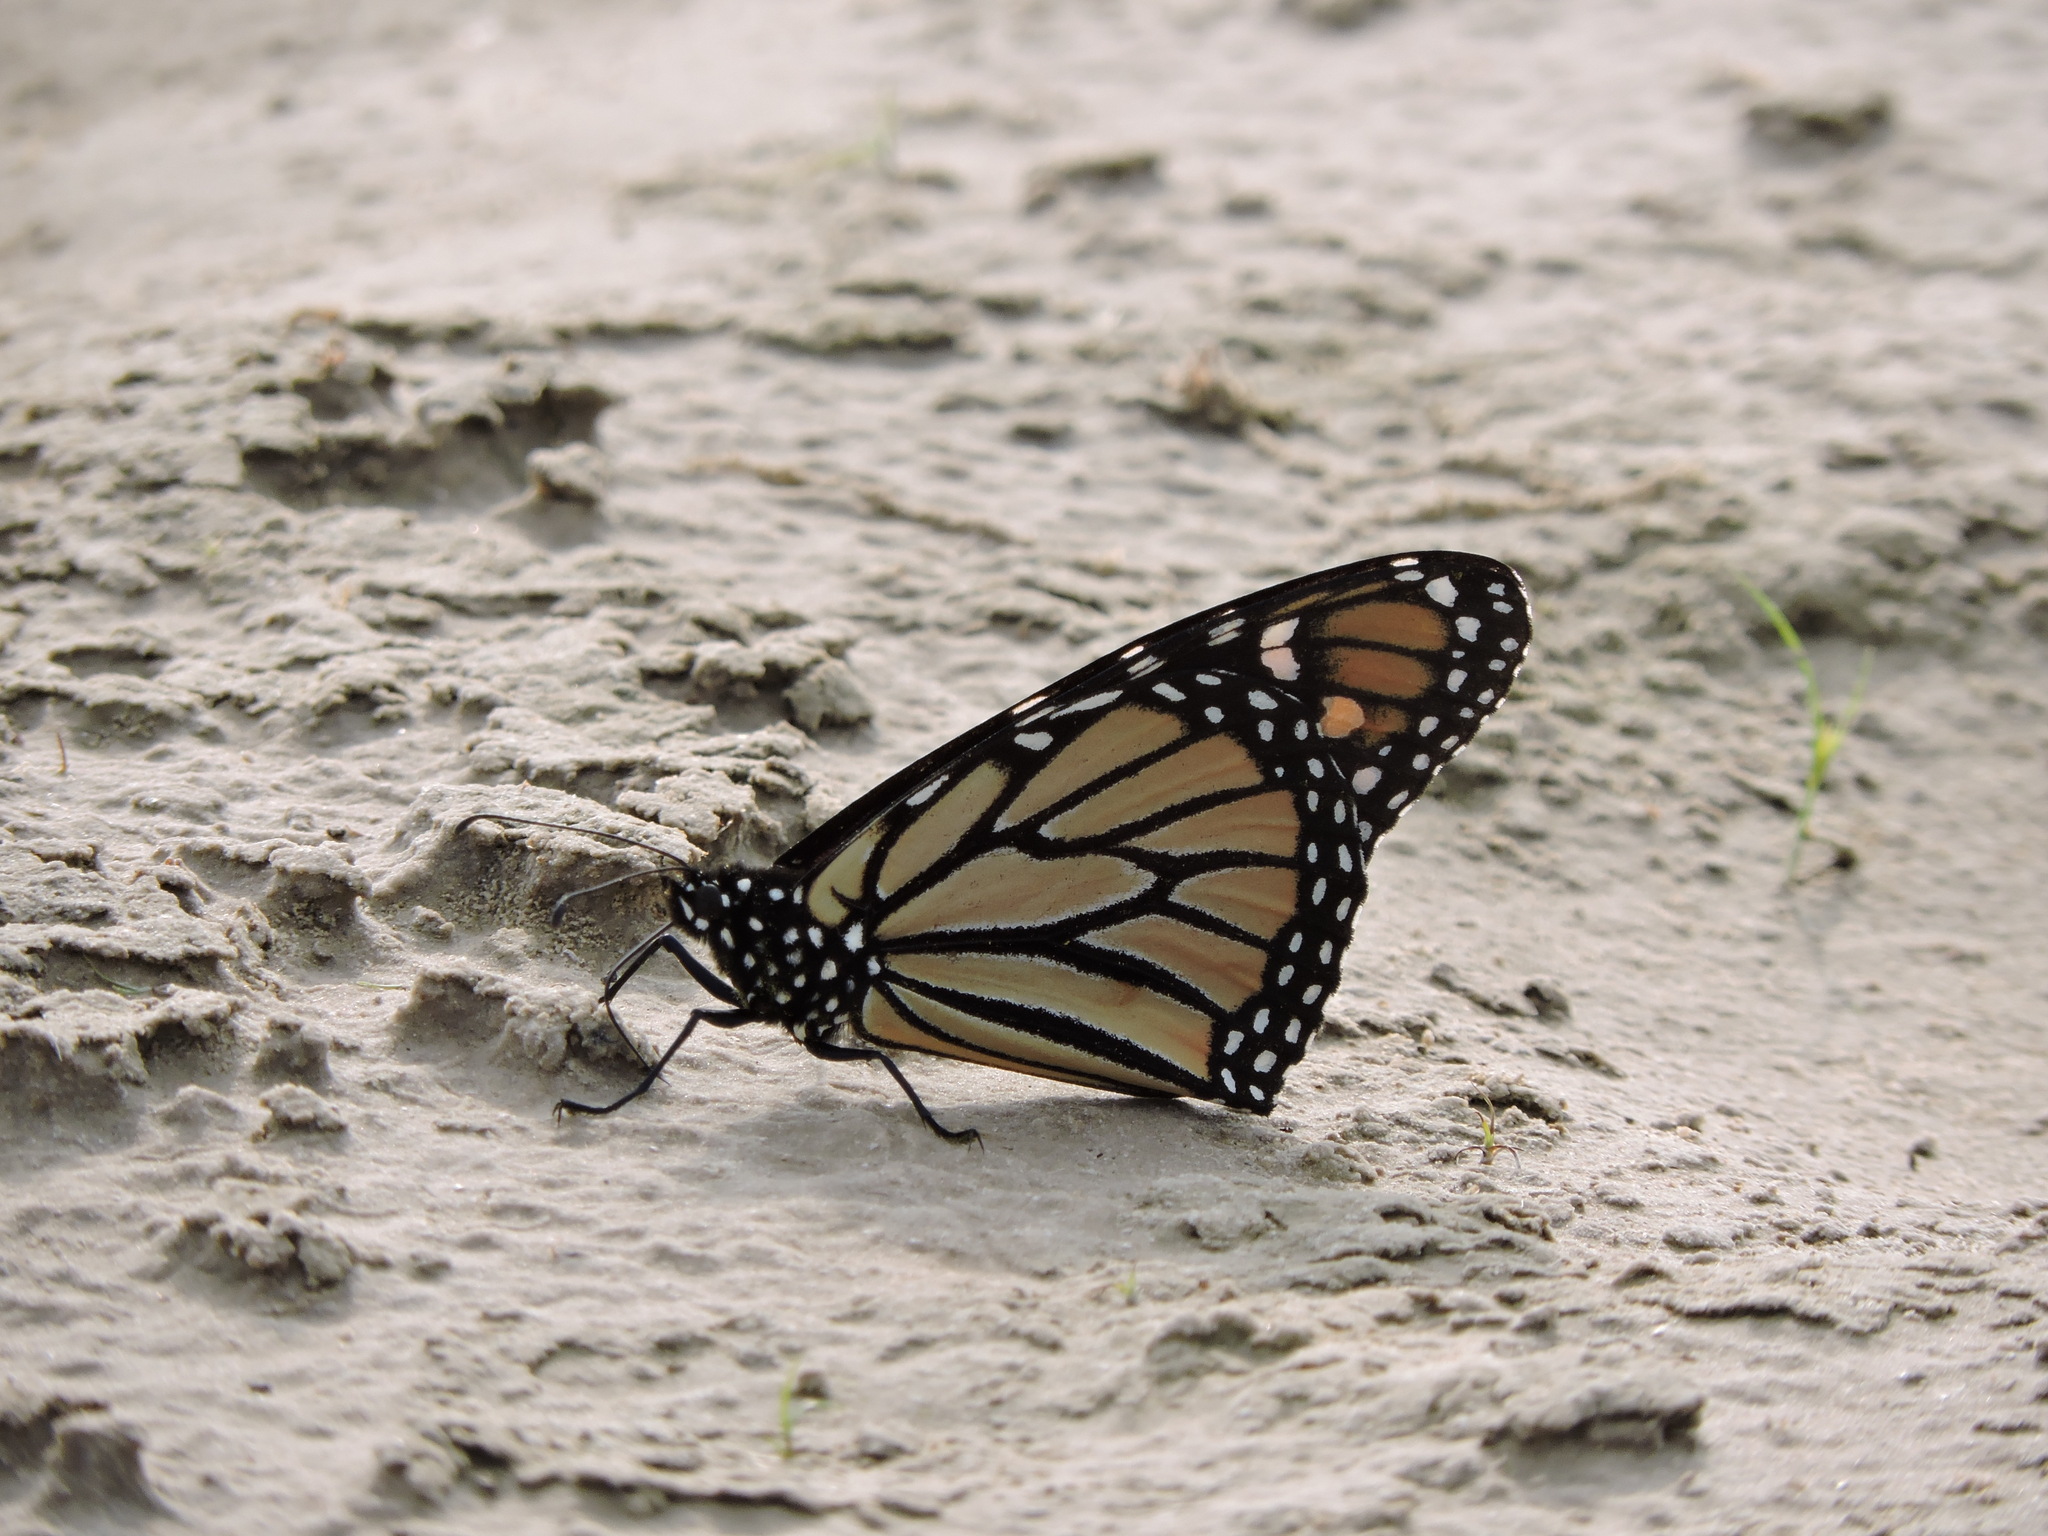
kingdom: Animalia
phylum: Arthropoda
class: Insecta
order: Lepidoptera
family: Nymphalidae
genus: Danaus
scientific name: Danaus plexippus
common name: Monarch
